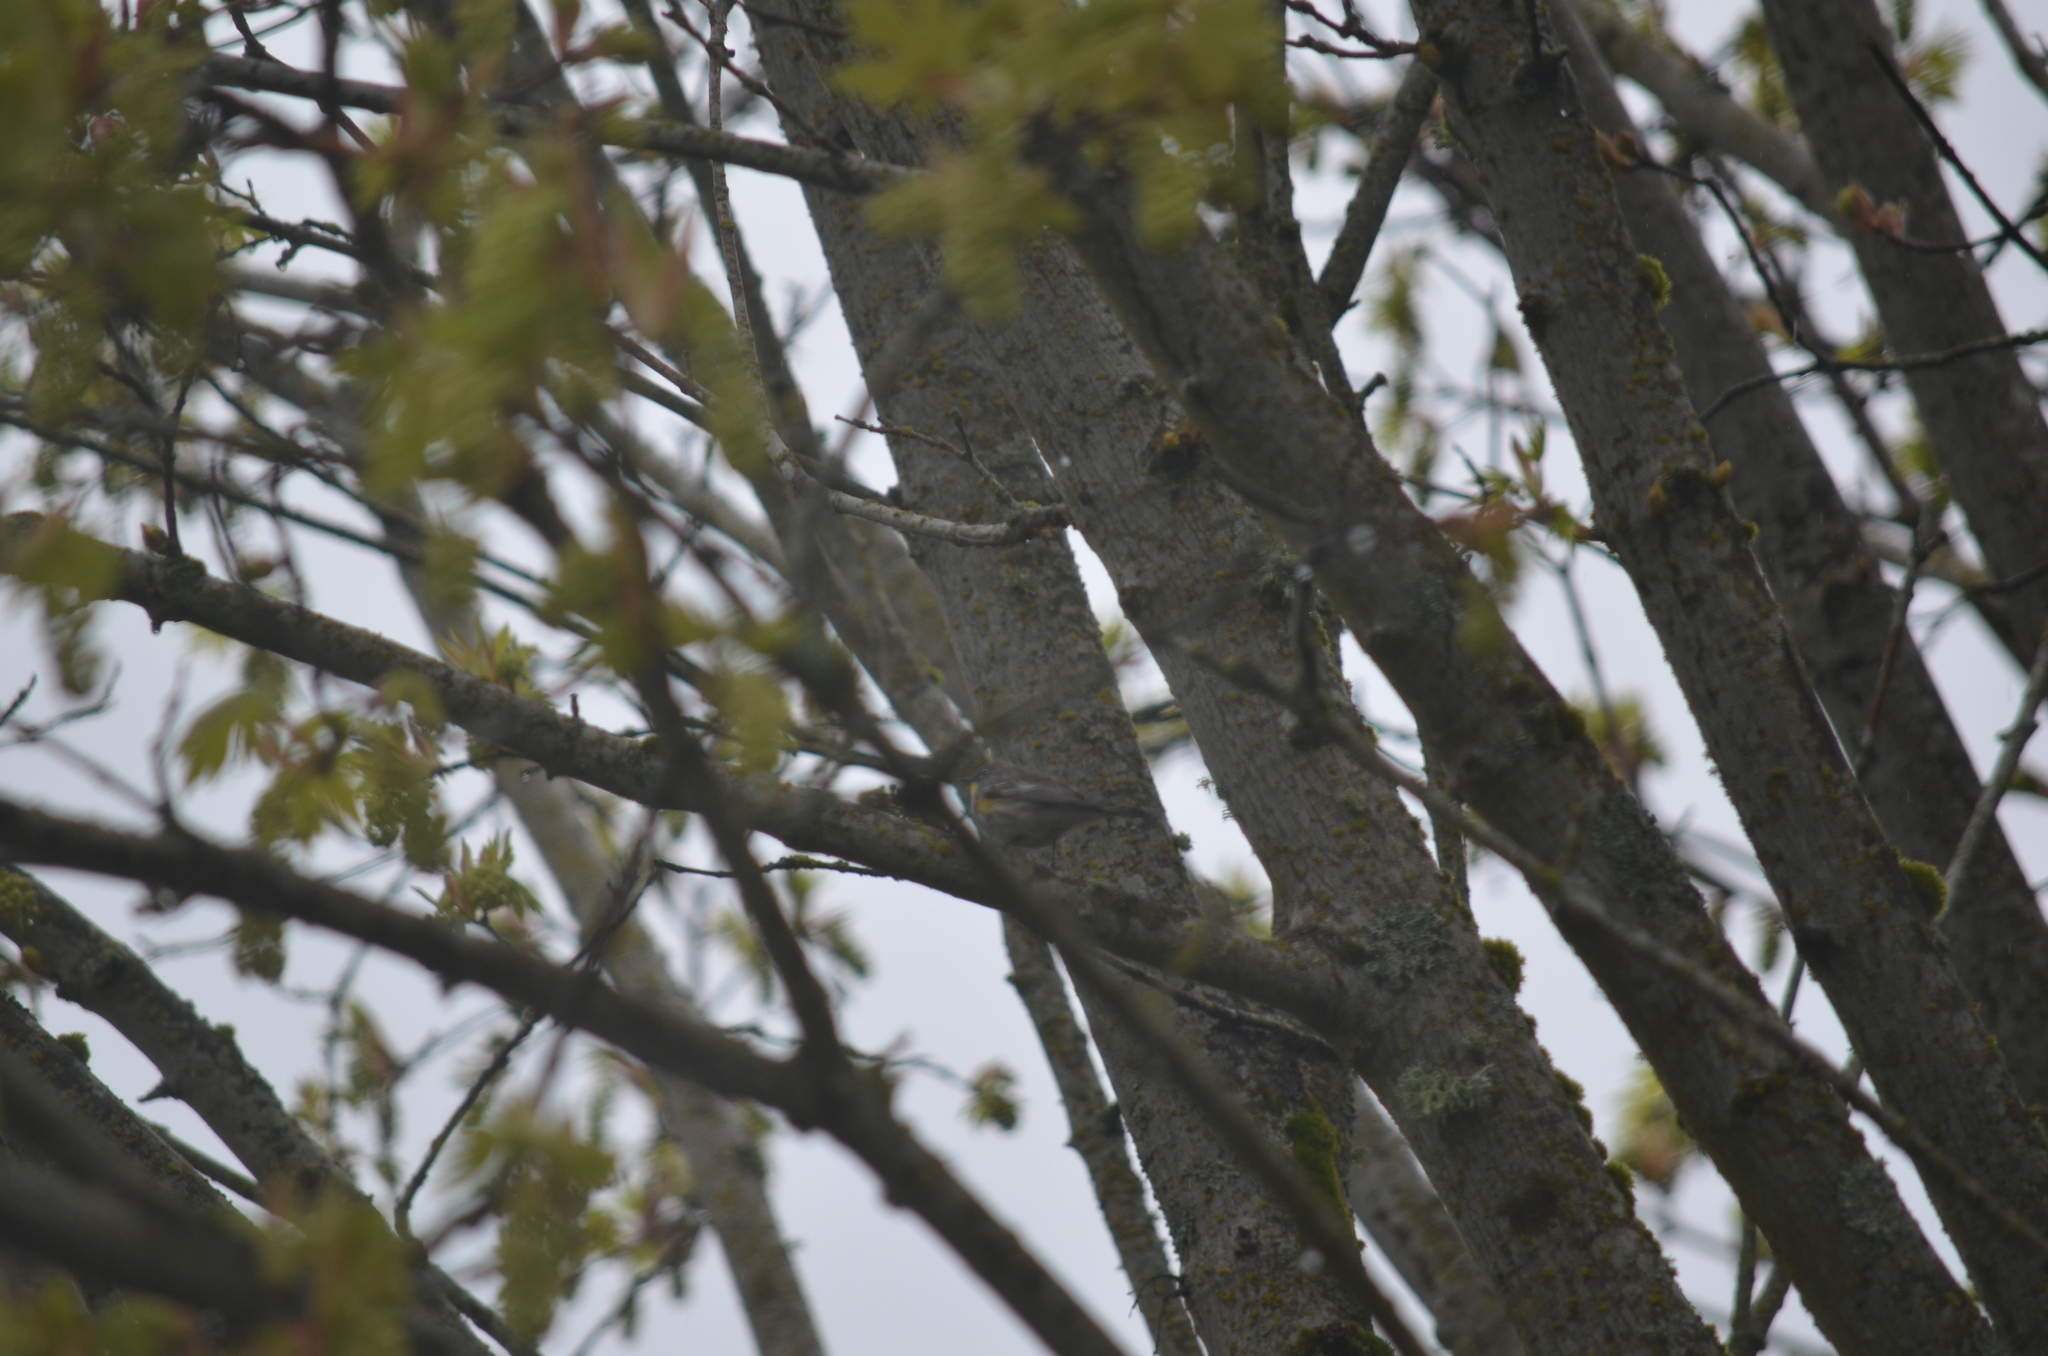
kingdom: Animalia
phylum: Chordata
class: Aves
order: Passeriformes
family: Parulidae
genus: Setophaga
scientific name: Setophaga coronata
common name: Myrtle warbler
